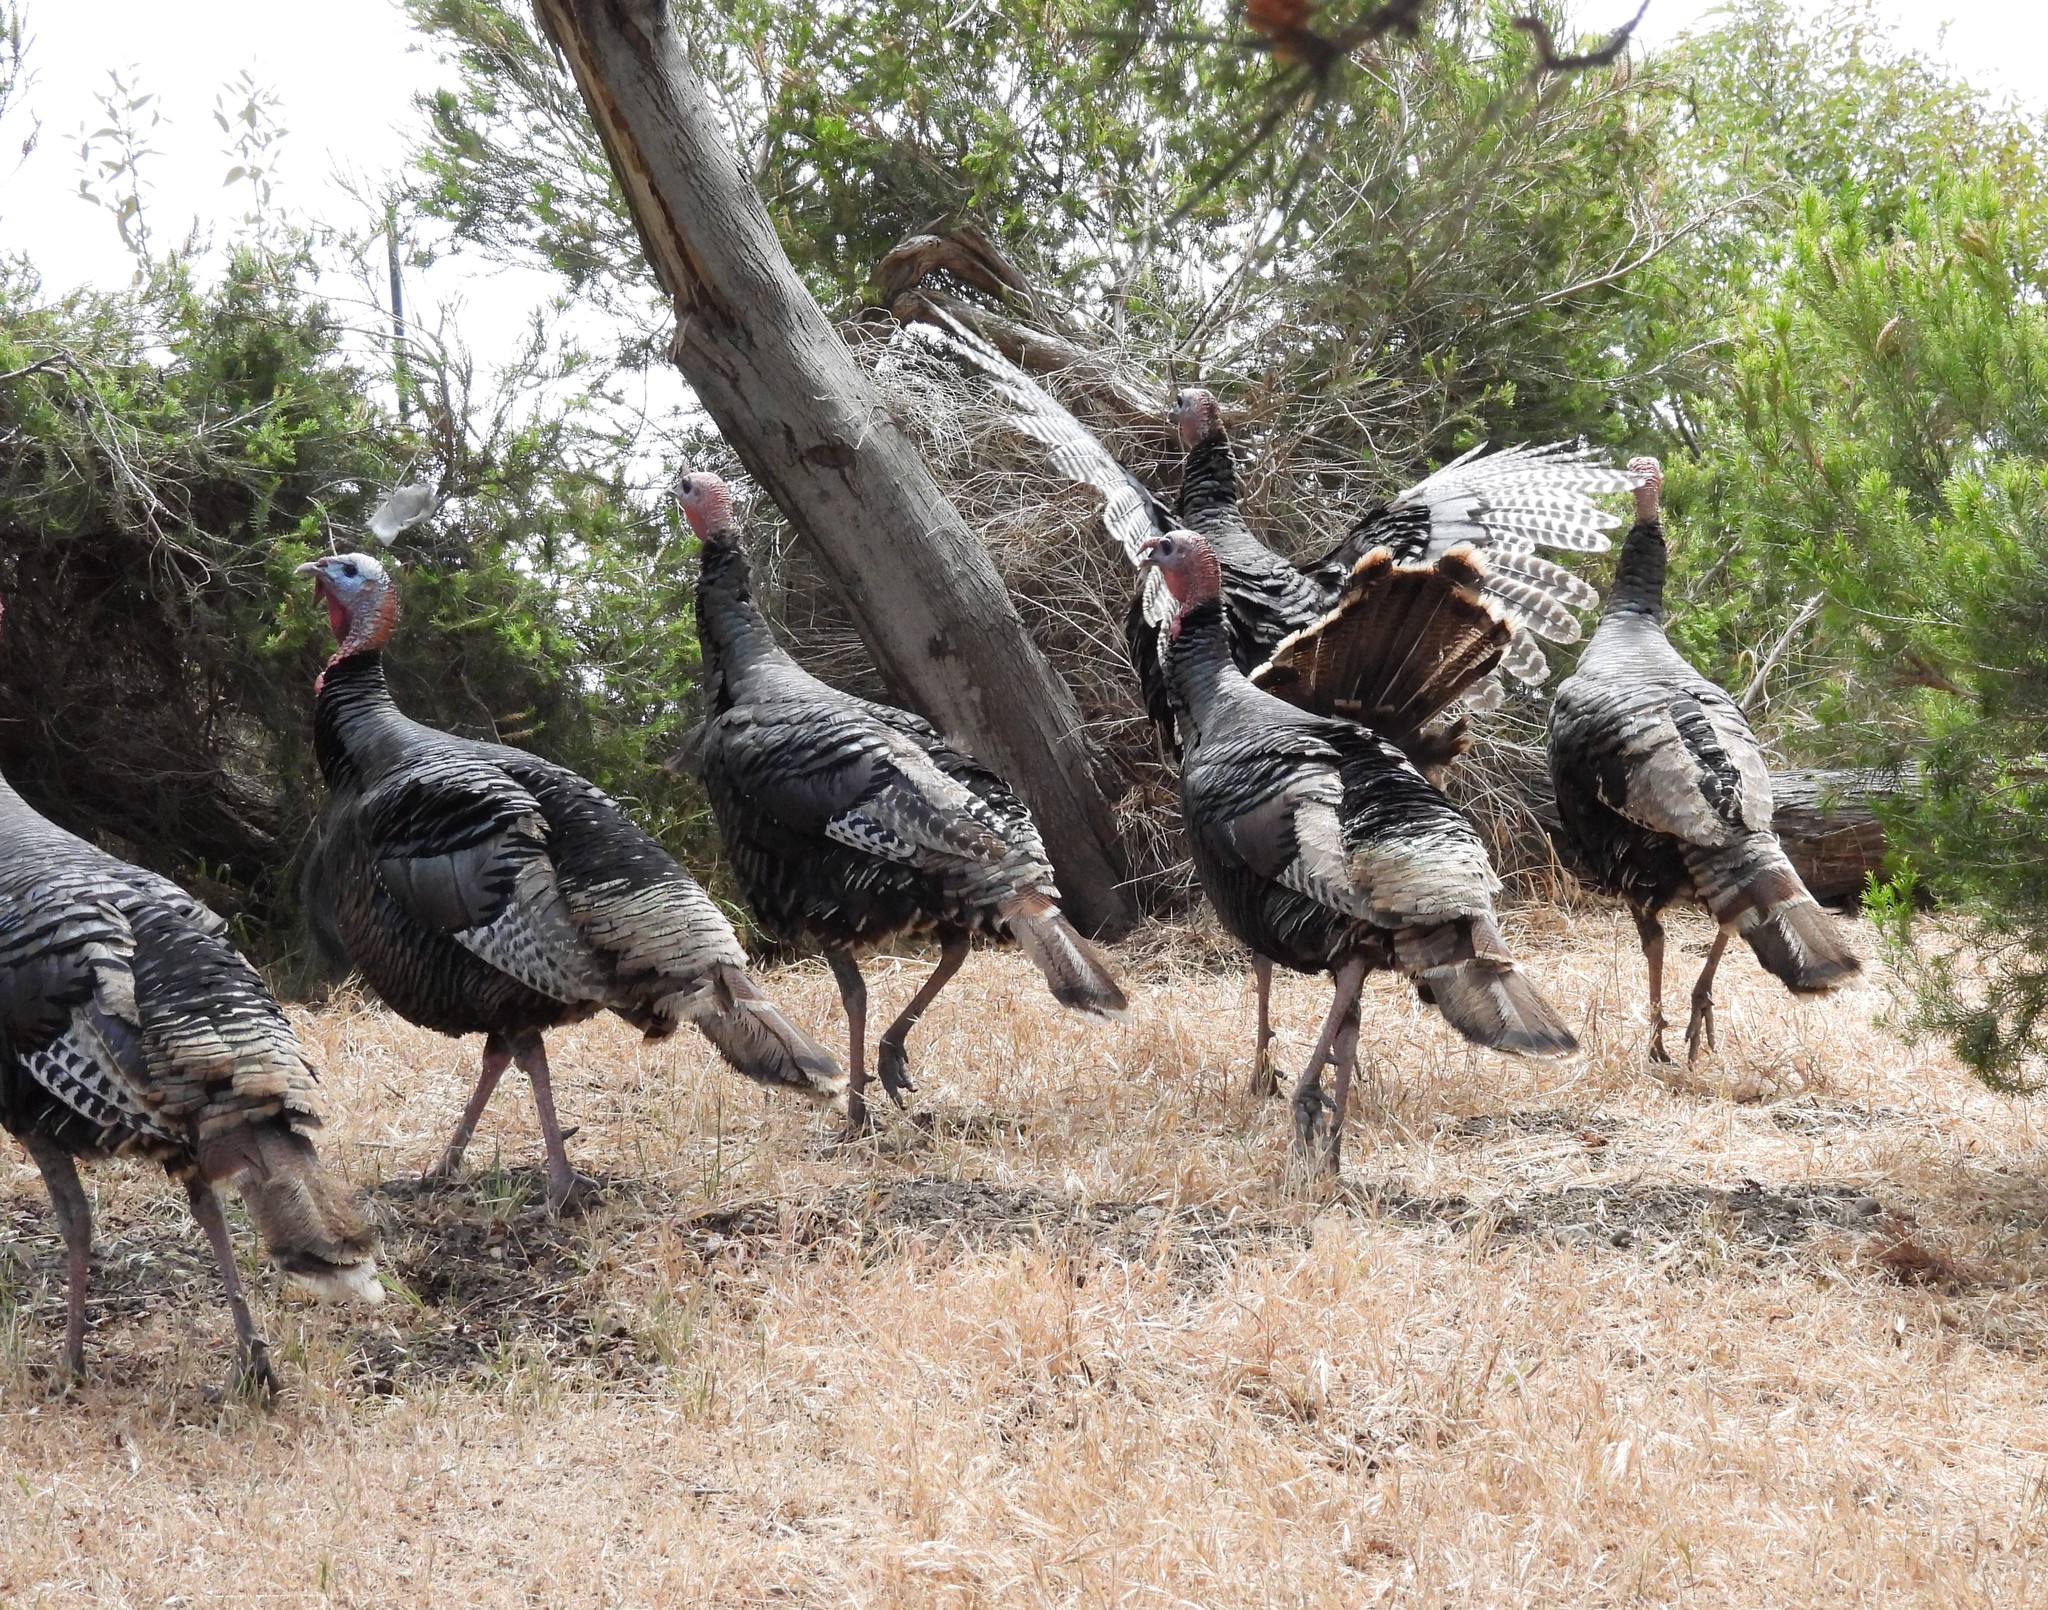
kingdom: Animalia
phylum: Chordata
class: Aves
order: Galliformes
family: Phasianidae
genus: Meleagris
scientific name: Meleagris gallopavo
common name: Wild turkey
